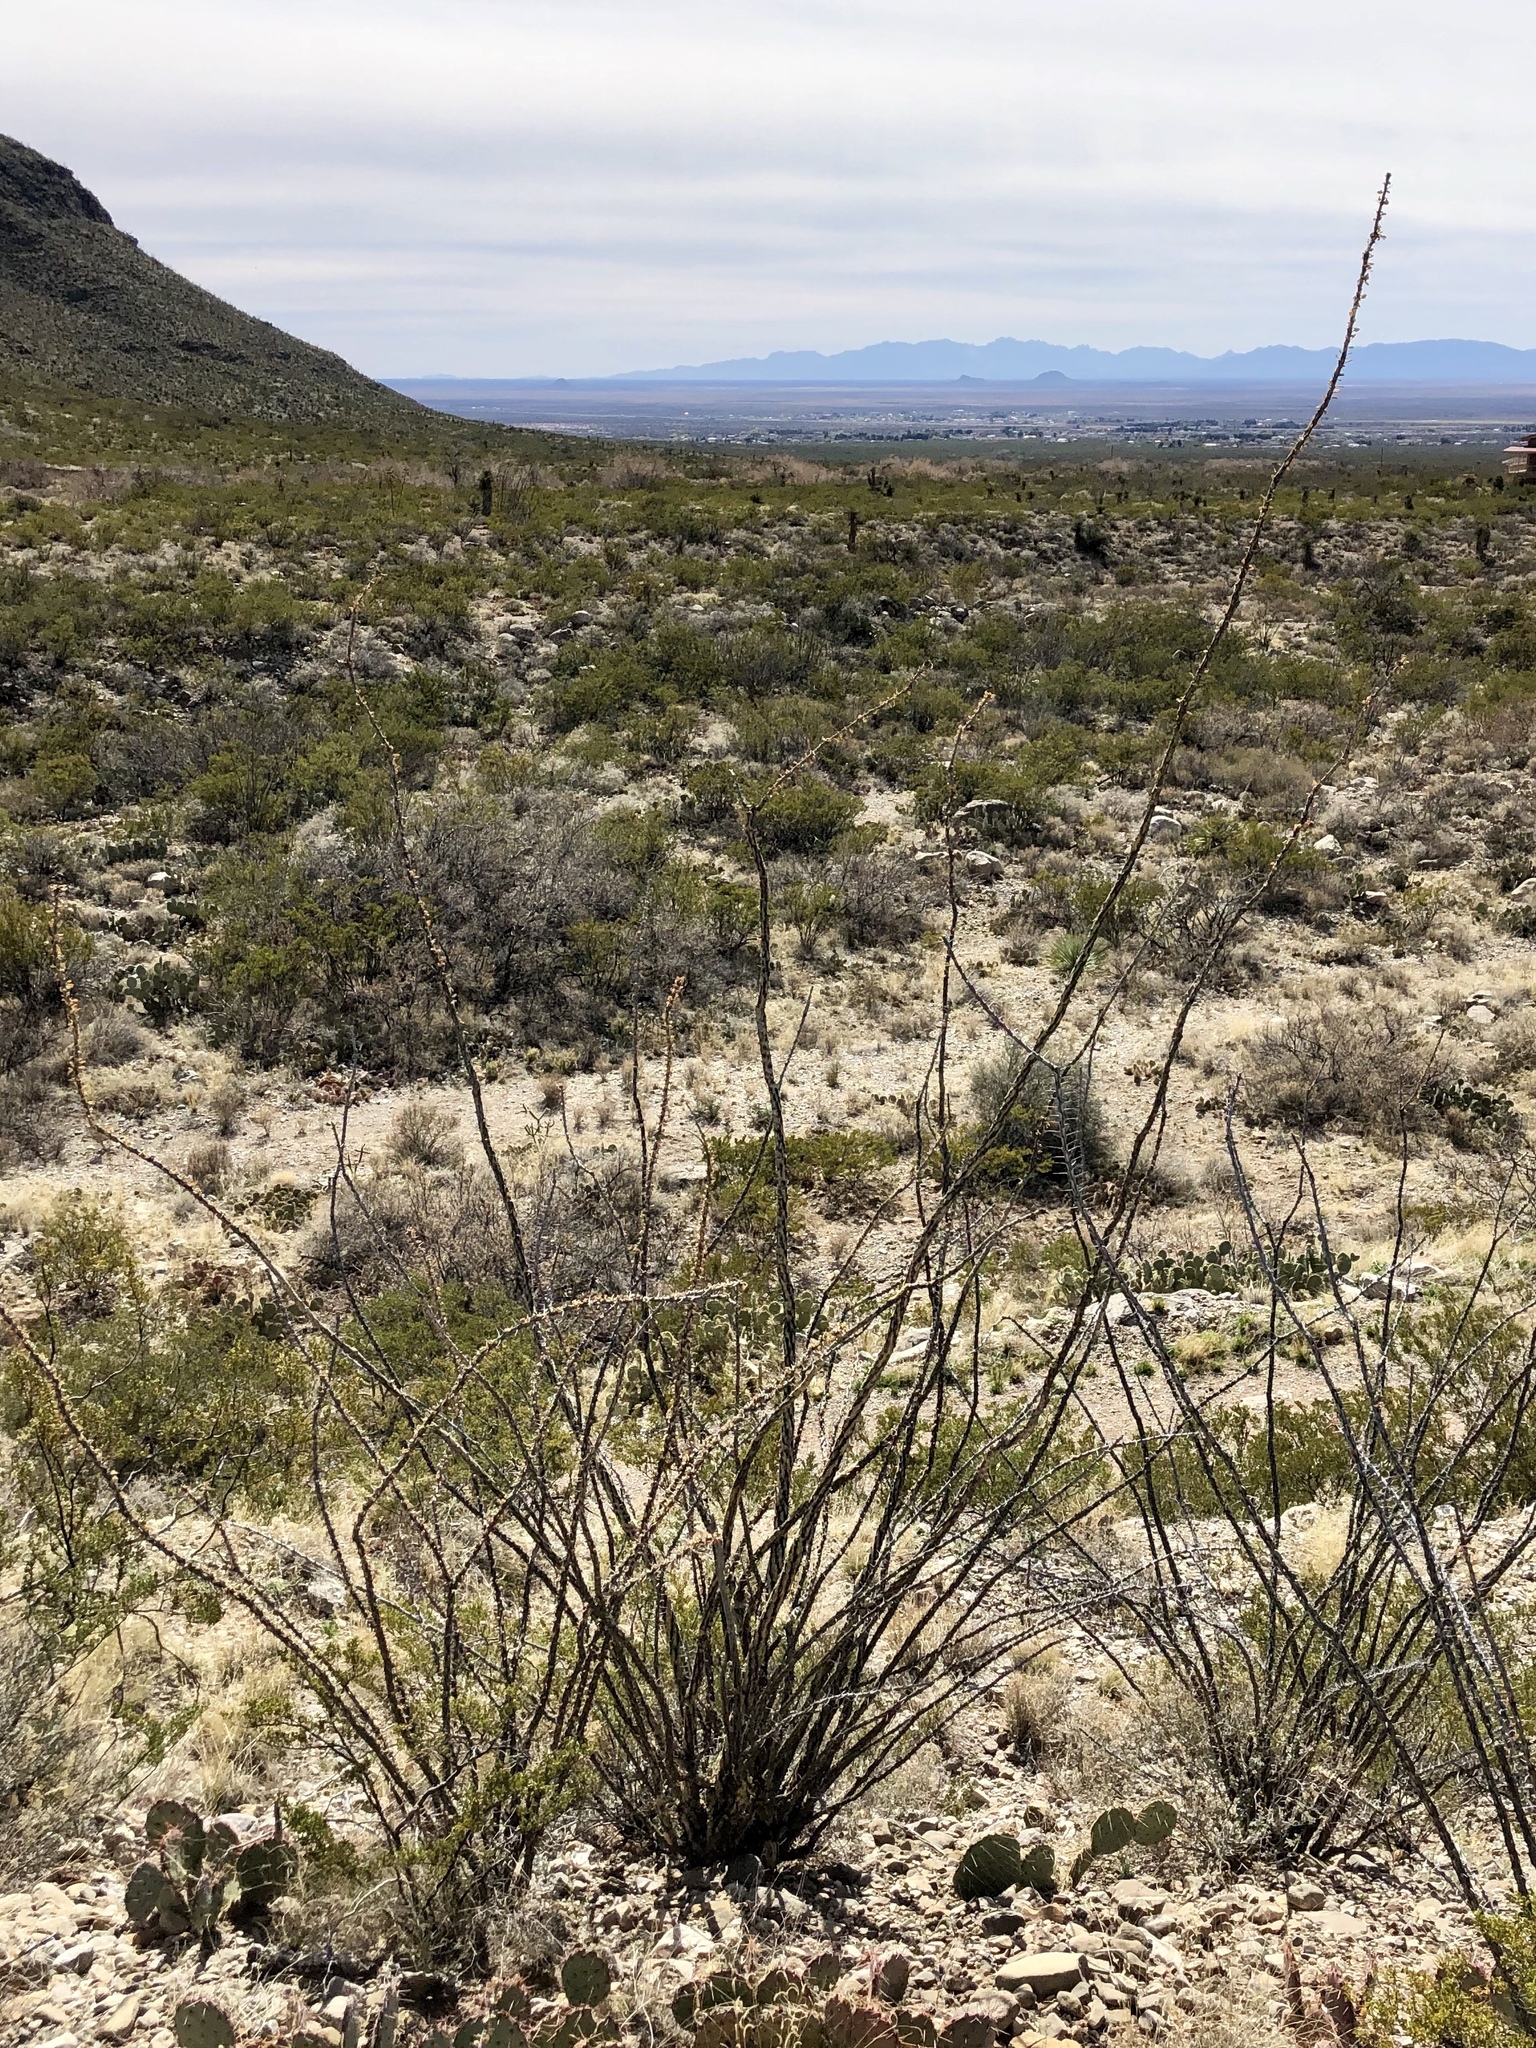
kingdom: Plantae
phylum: Tracheophyta
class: Magnoliopsida
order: Ericales
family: Fouquieriaceae
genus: Fouquieria
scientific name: Fouquieria splendens
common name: Vine-cactus
